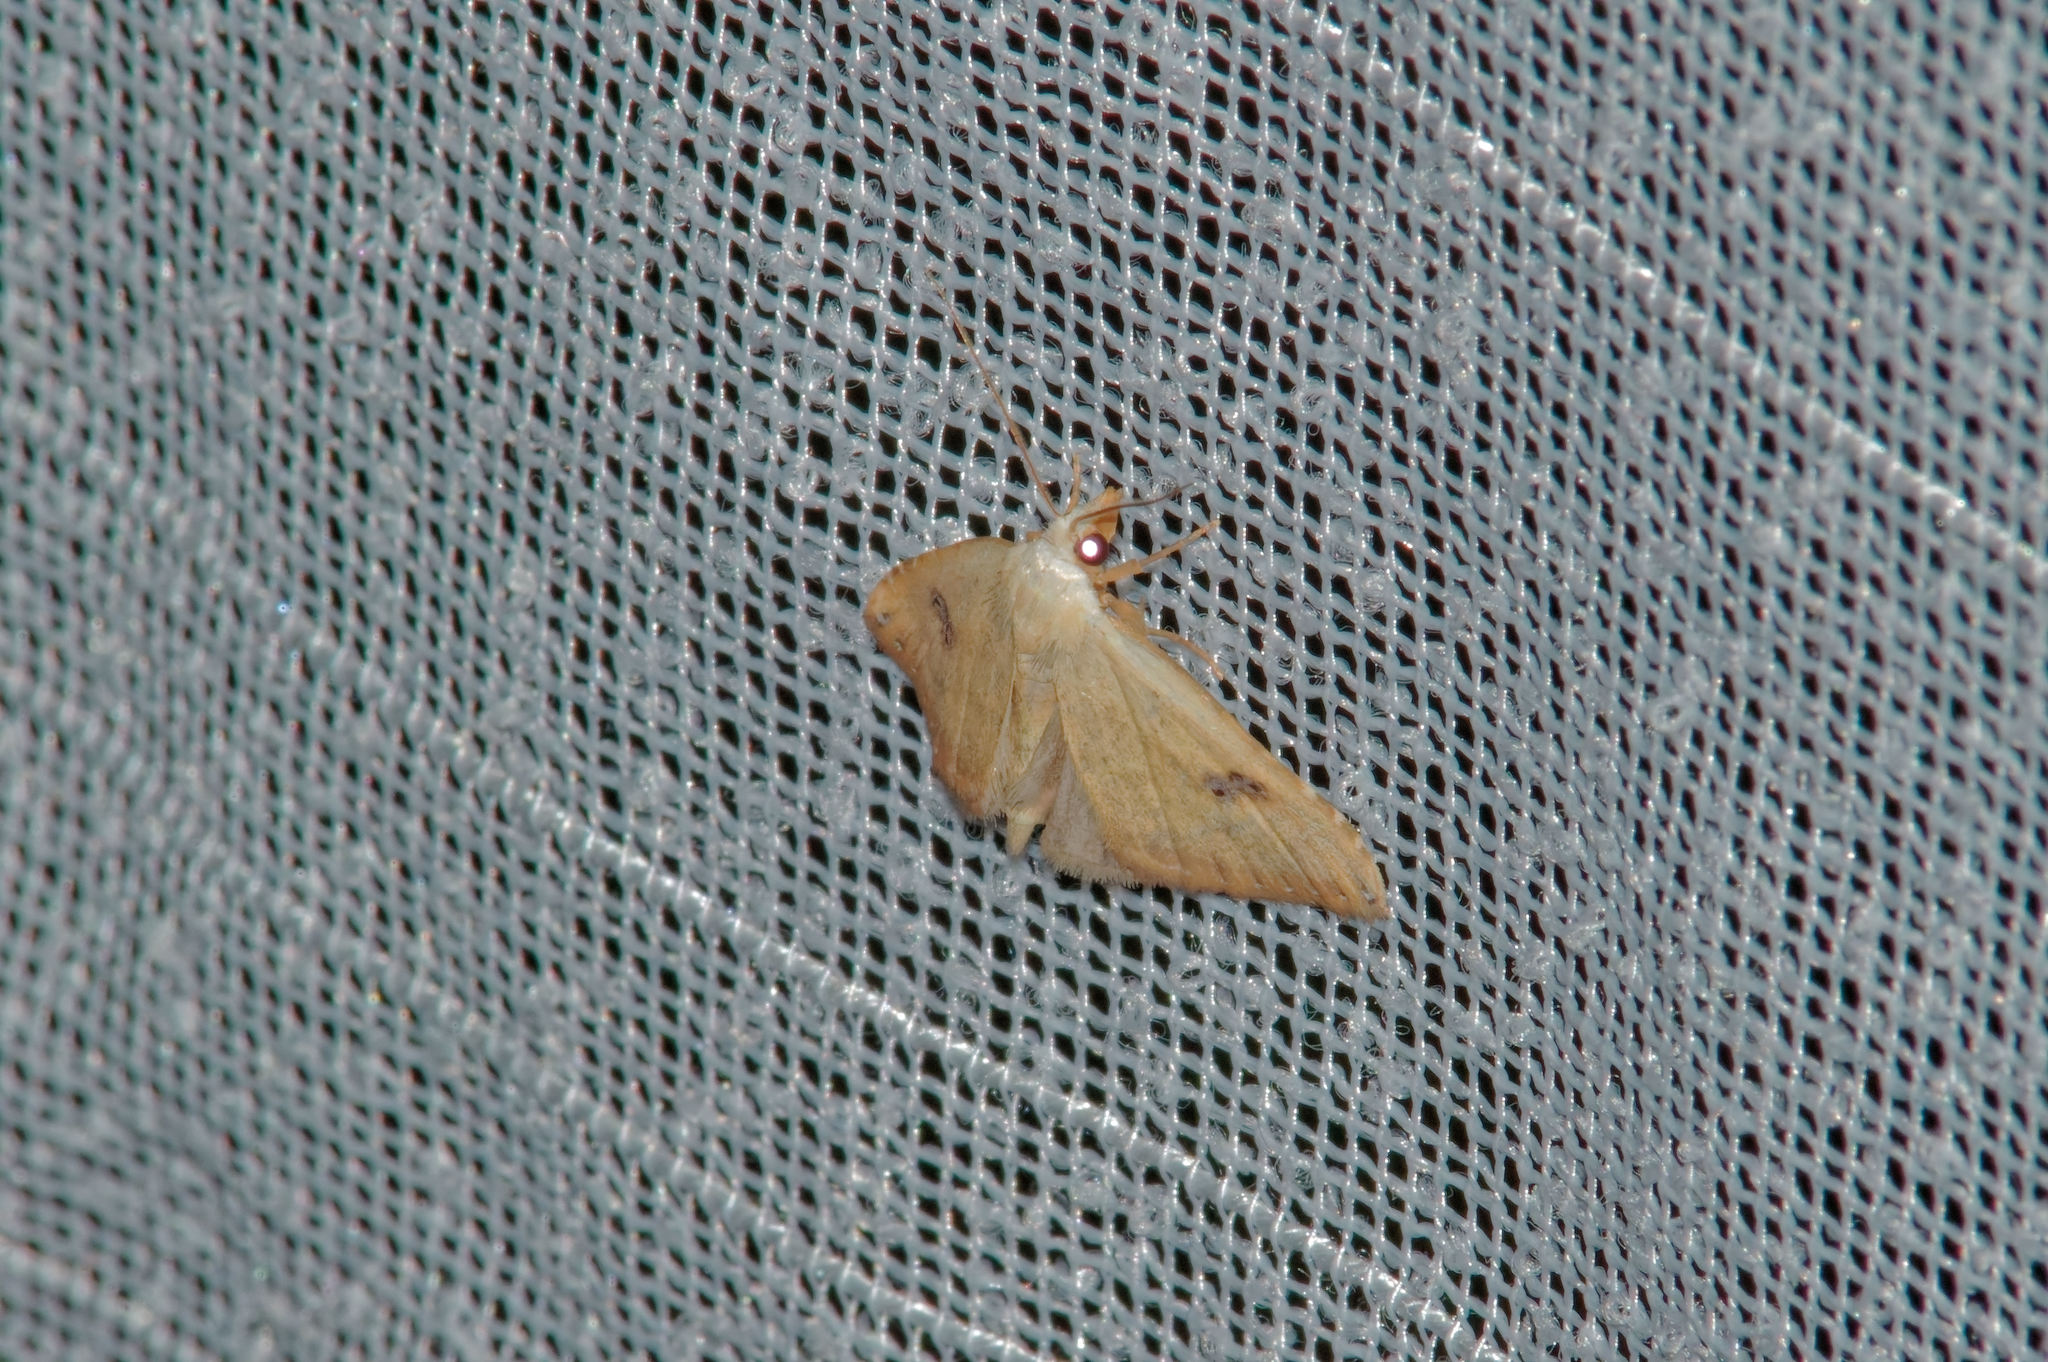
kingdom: Animalia
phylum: Arthropoda
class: Insecta
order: Lepidoptera
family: Erebidae
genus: Rivula
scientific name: Rivula sericealis
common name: Straw dot
